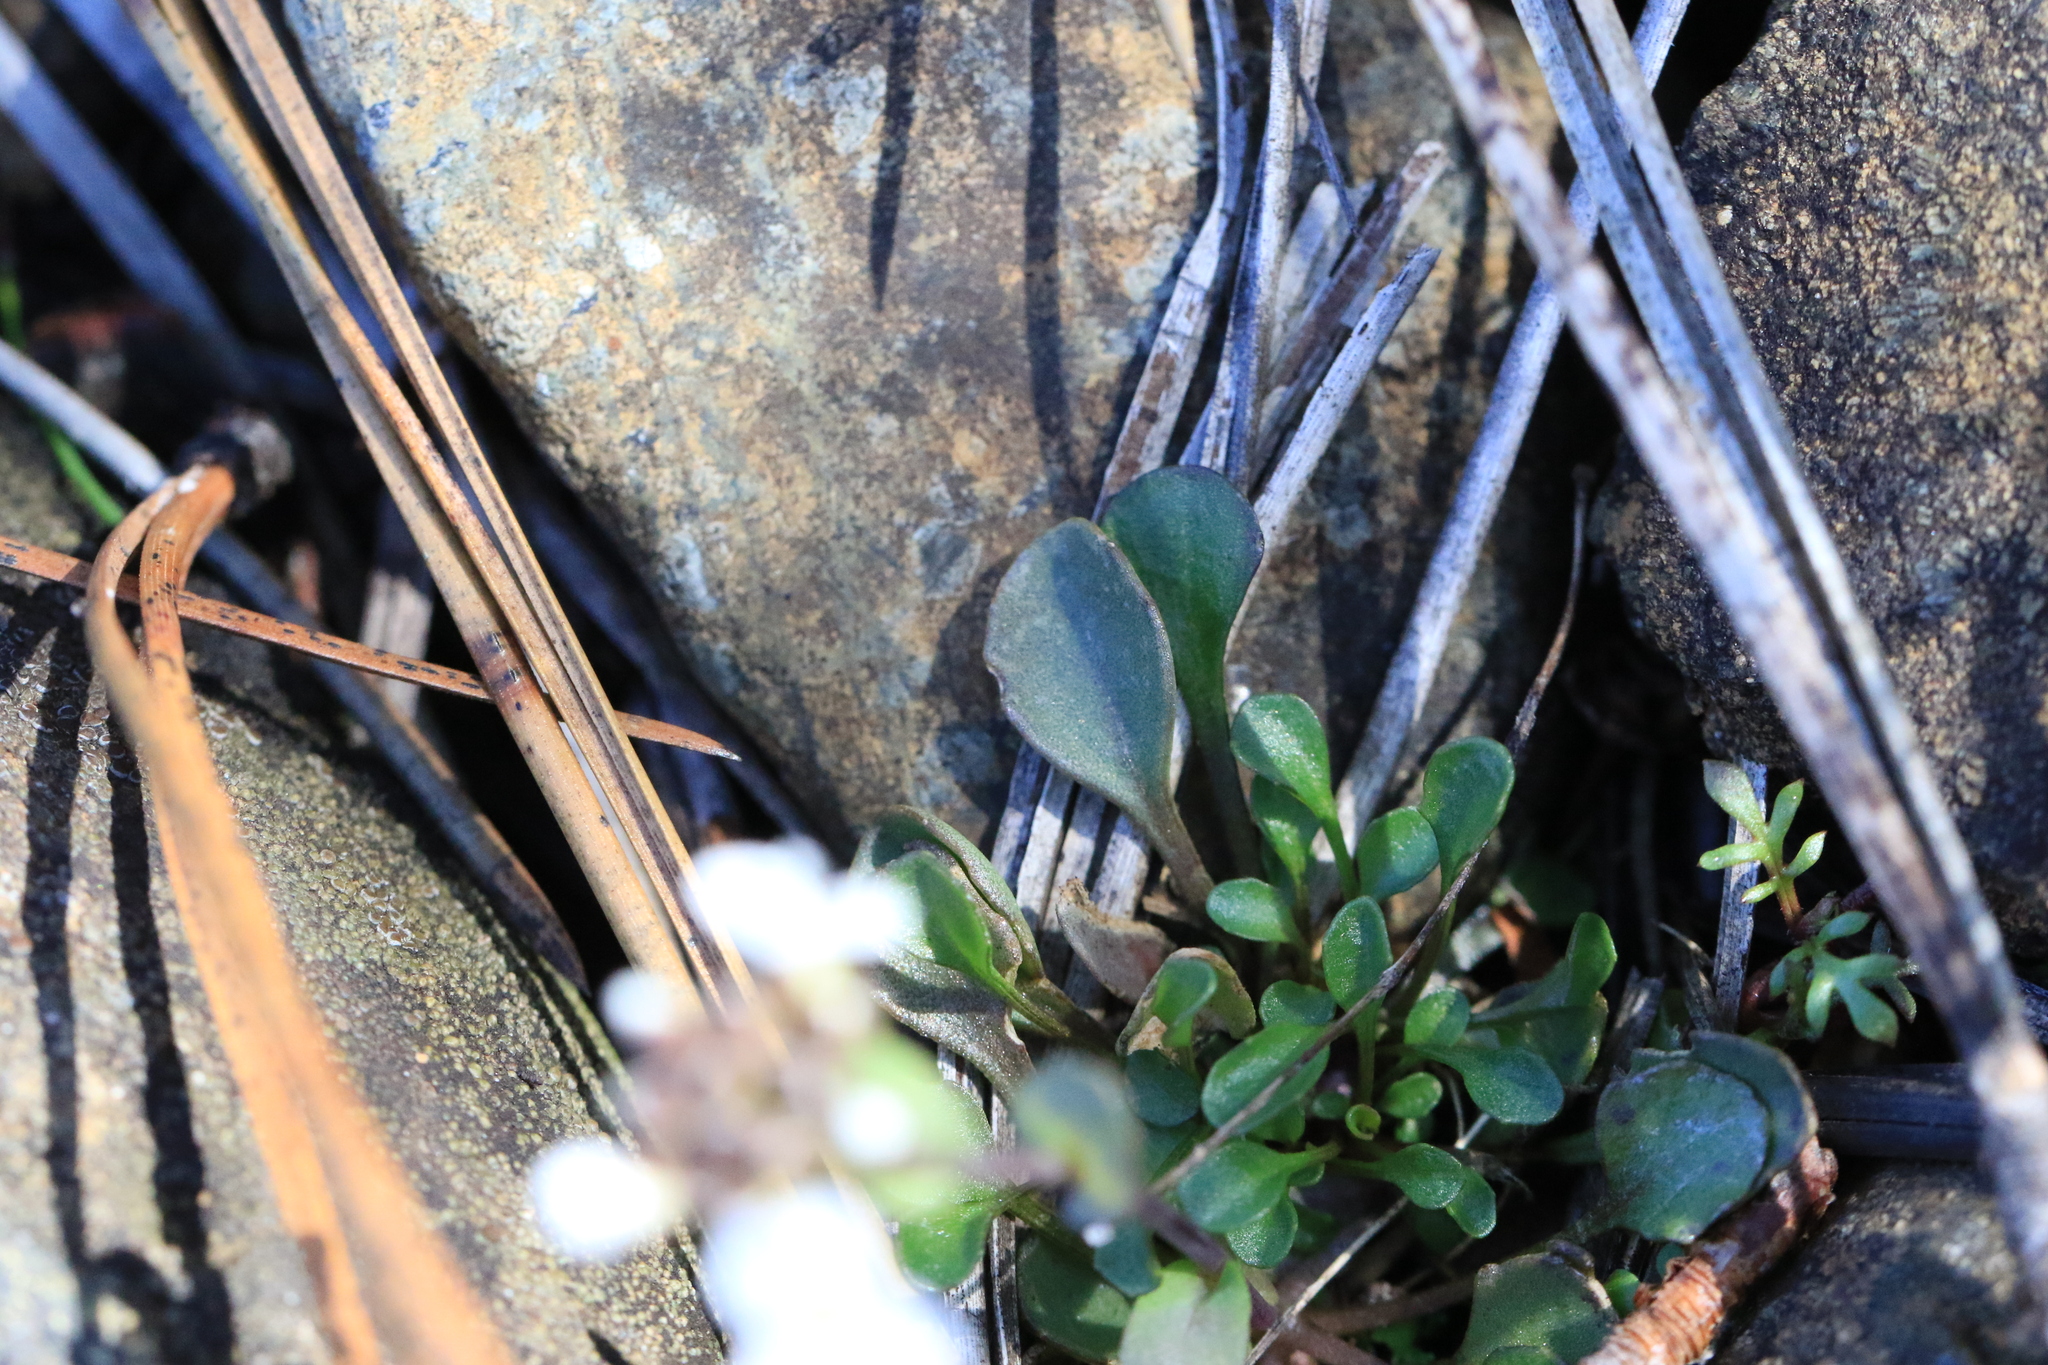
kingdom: Plantae
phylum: Tracheophyta
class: Magnoliopsida
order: Brassicales
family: Brassicaceae
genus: Noccaea
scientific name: Noccaea fendleri
